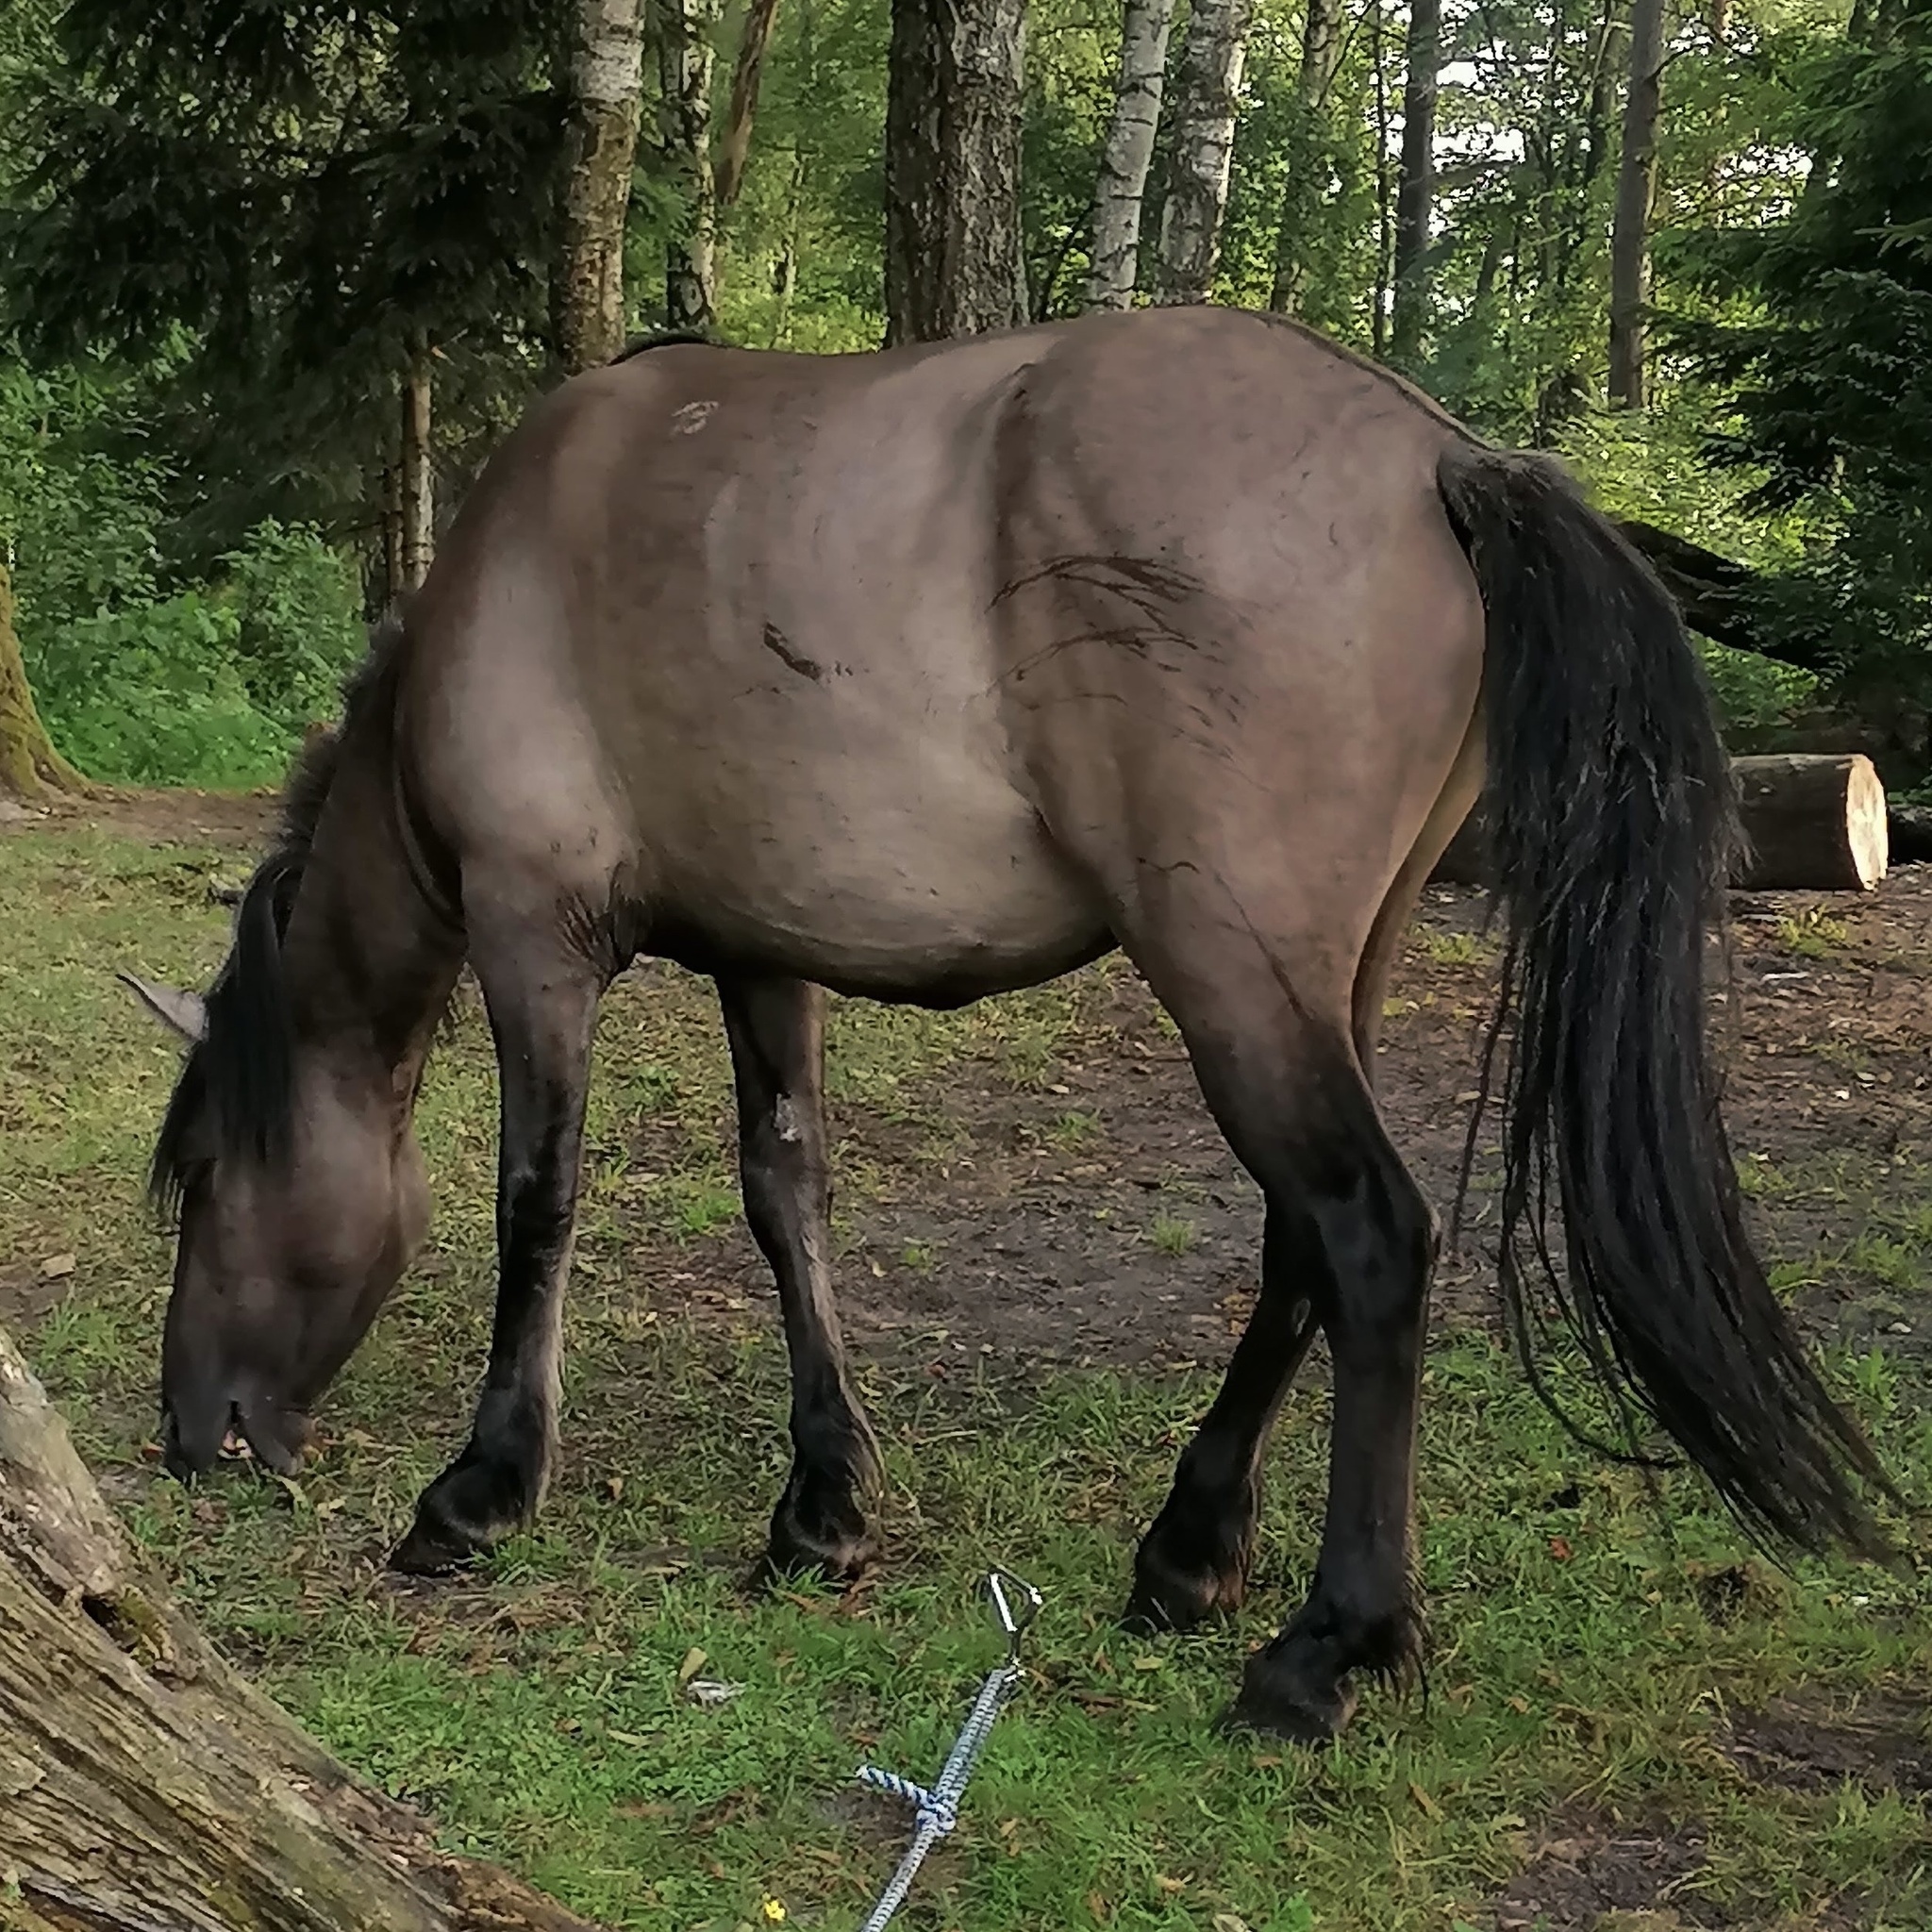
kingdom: Animalia
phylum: Chordata
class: Mammalia
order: Perissodactyla
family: Equidae
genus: Equus
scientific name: Equus caballus
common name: Horse
